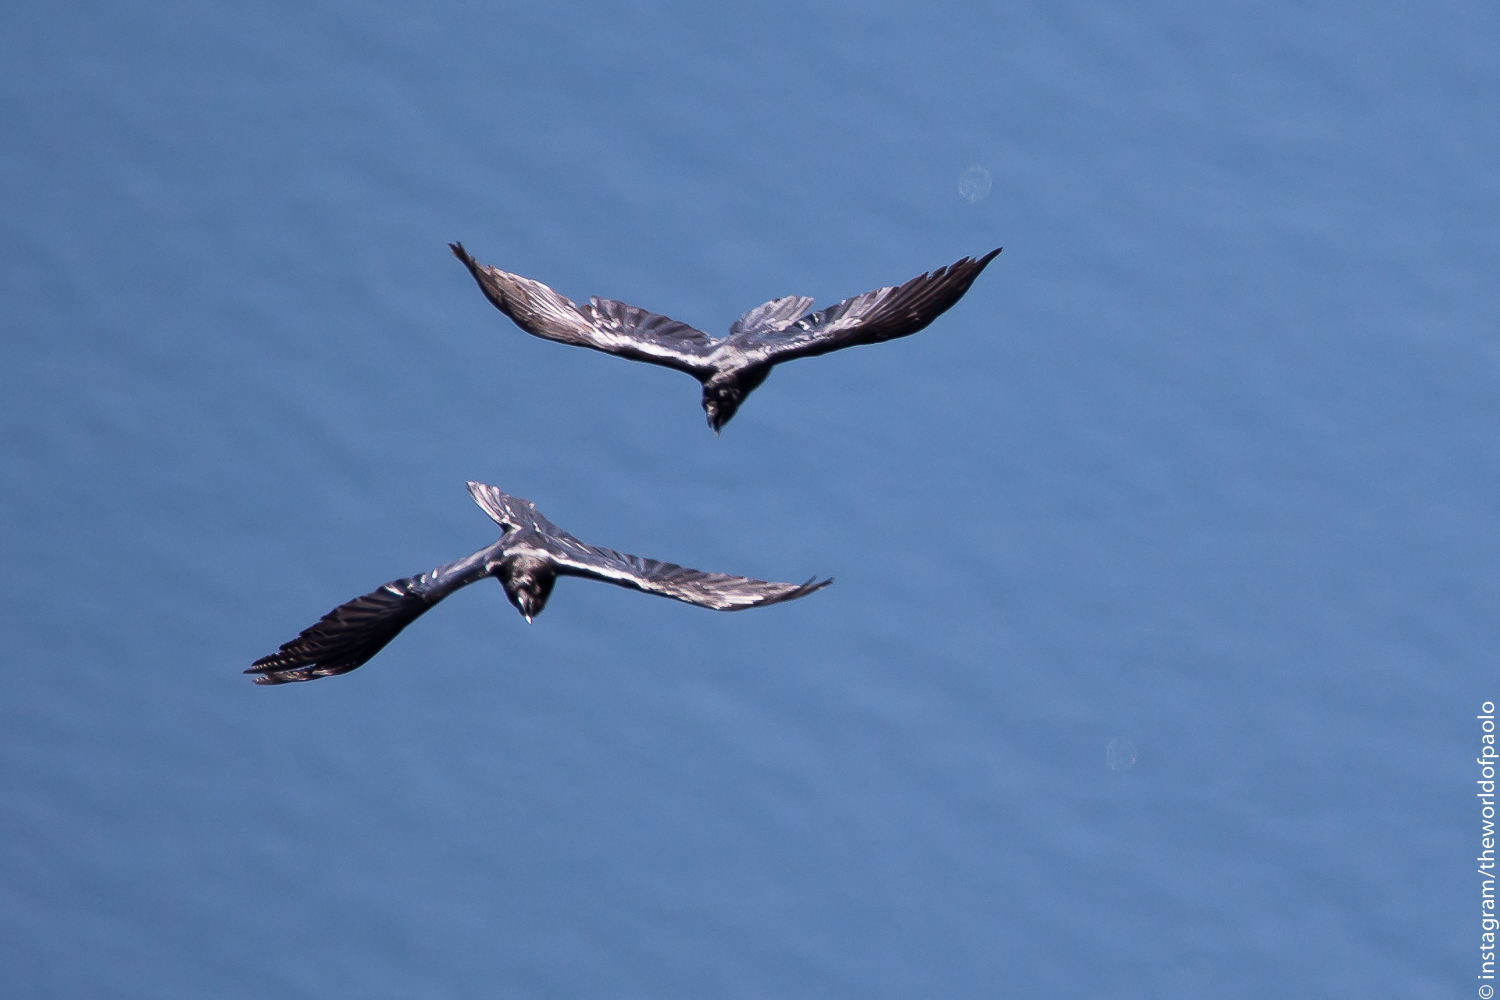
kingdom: Animalia
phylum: Chordata
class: Aves
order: Passeriformes
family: Corvidae
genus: Corvus
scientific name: Corvus corax
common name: Common raven
